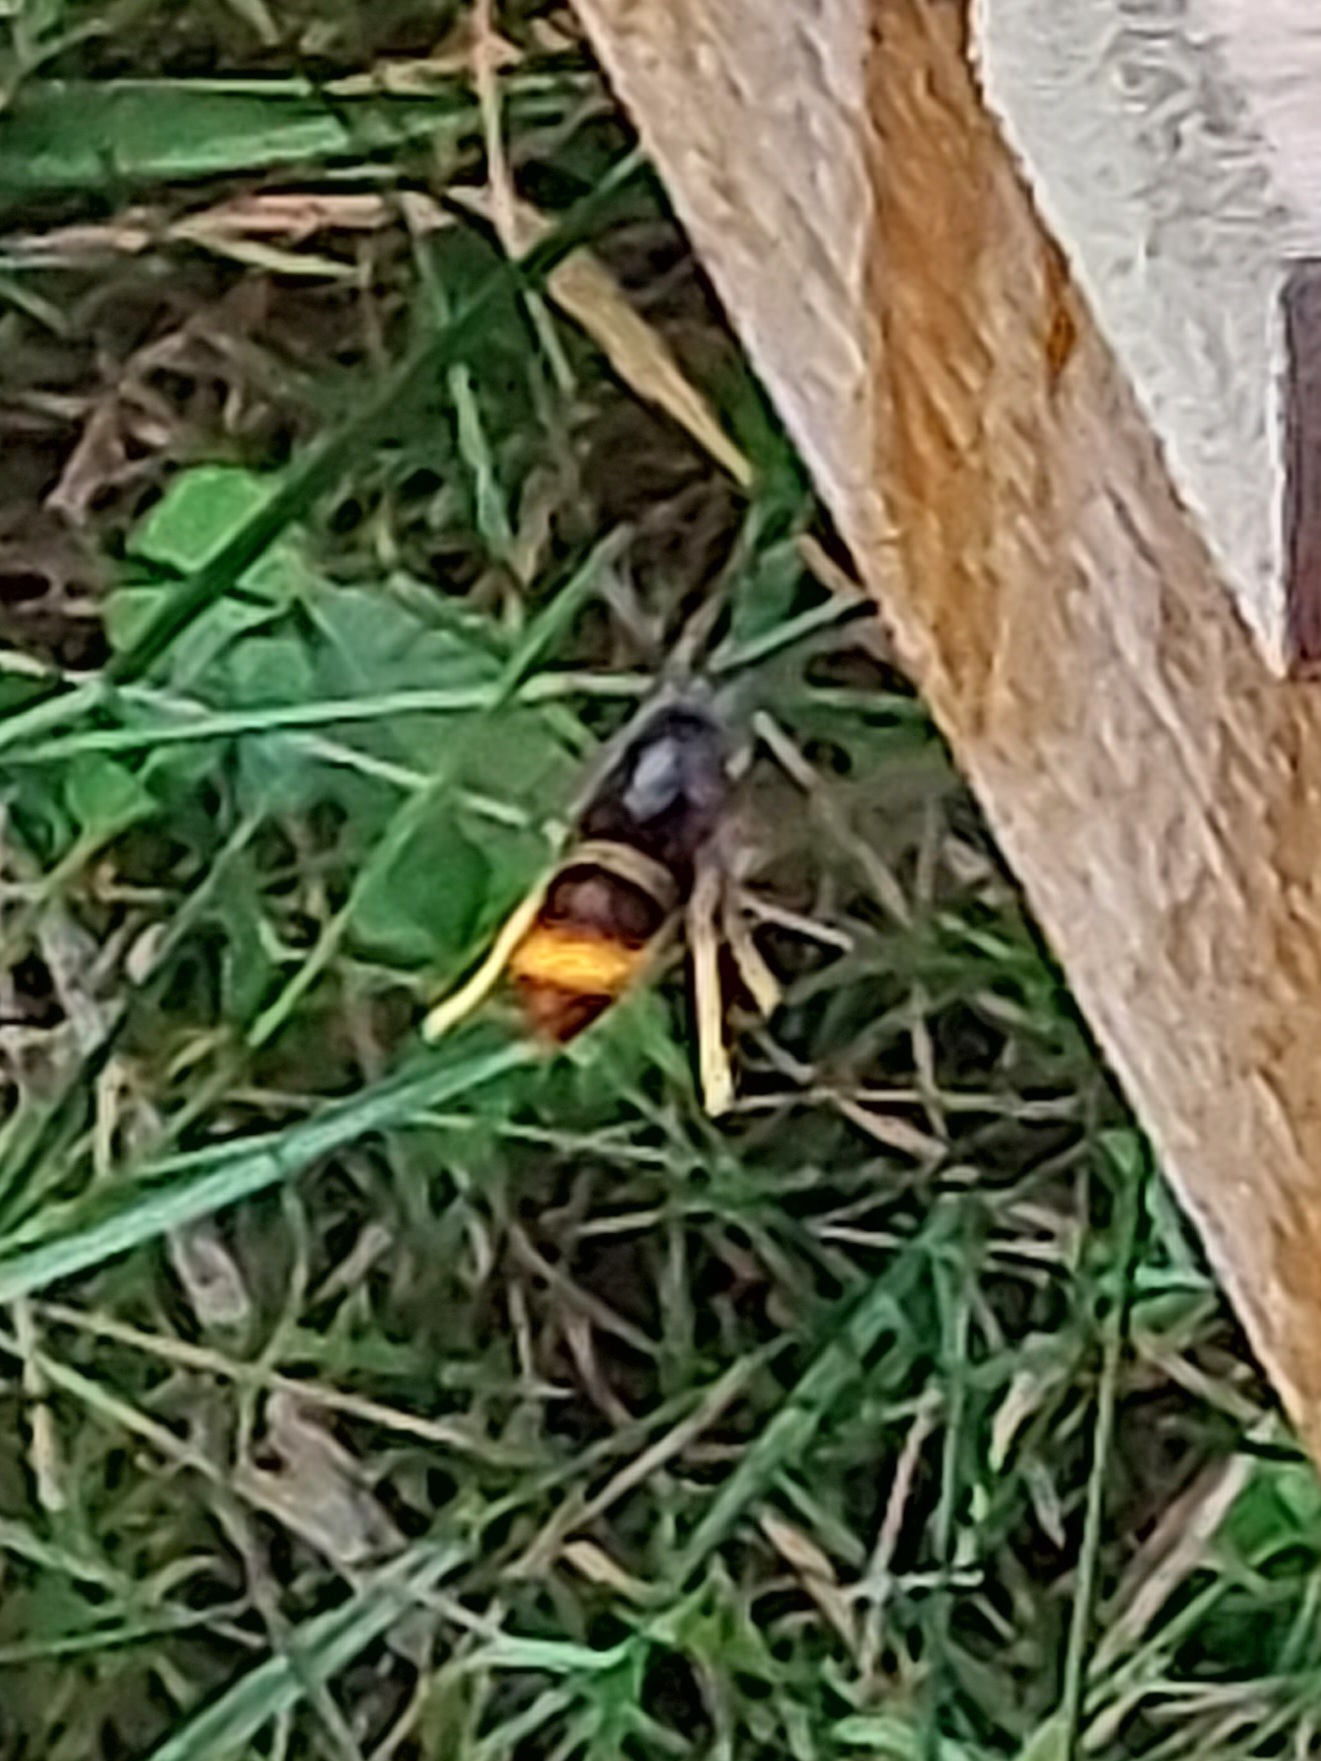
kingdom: Animalia
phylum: Arthropoda
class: Insecta
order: Hymenoptera
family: Vespidae
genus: Vespa
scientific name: Vespa velutina
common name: Asian hornet
